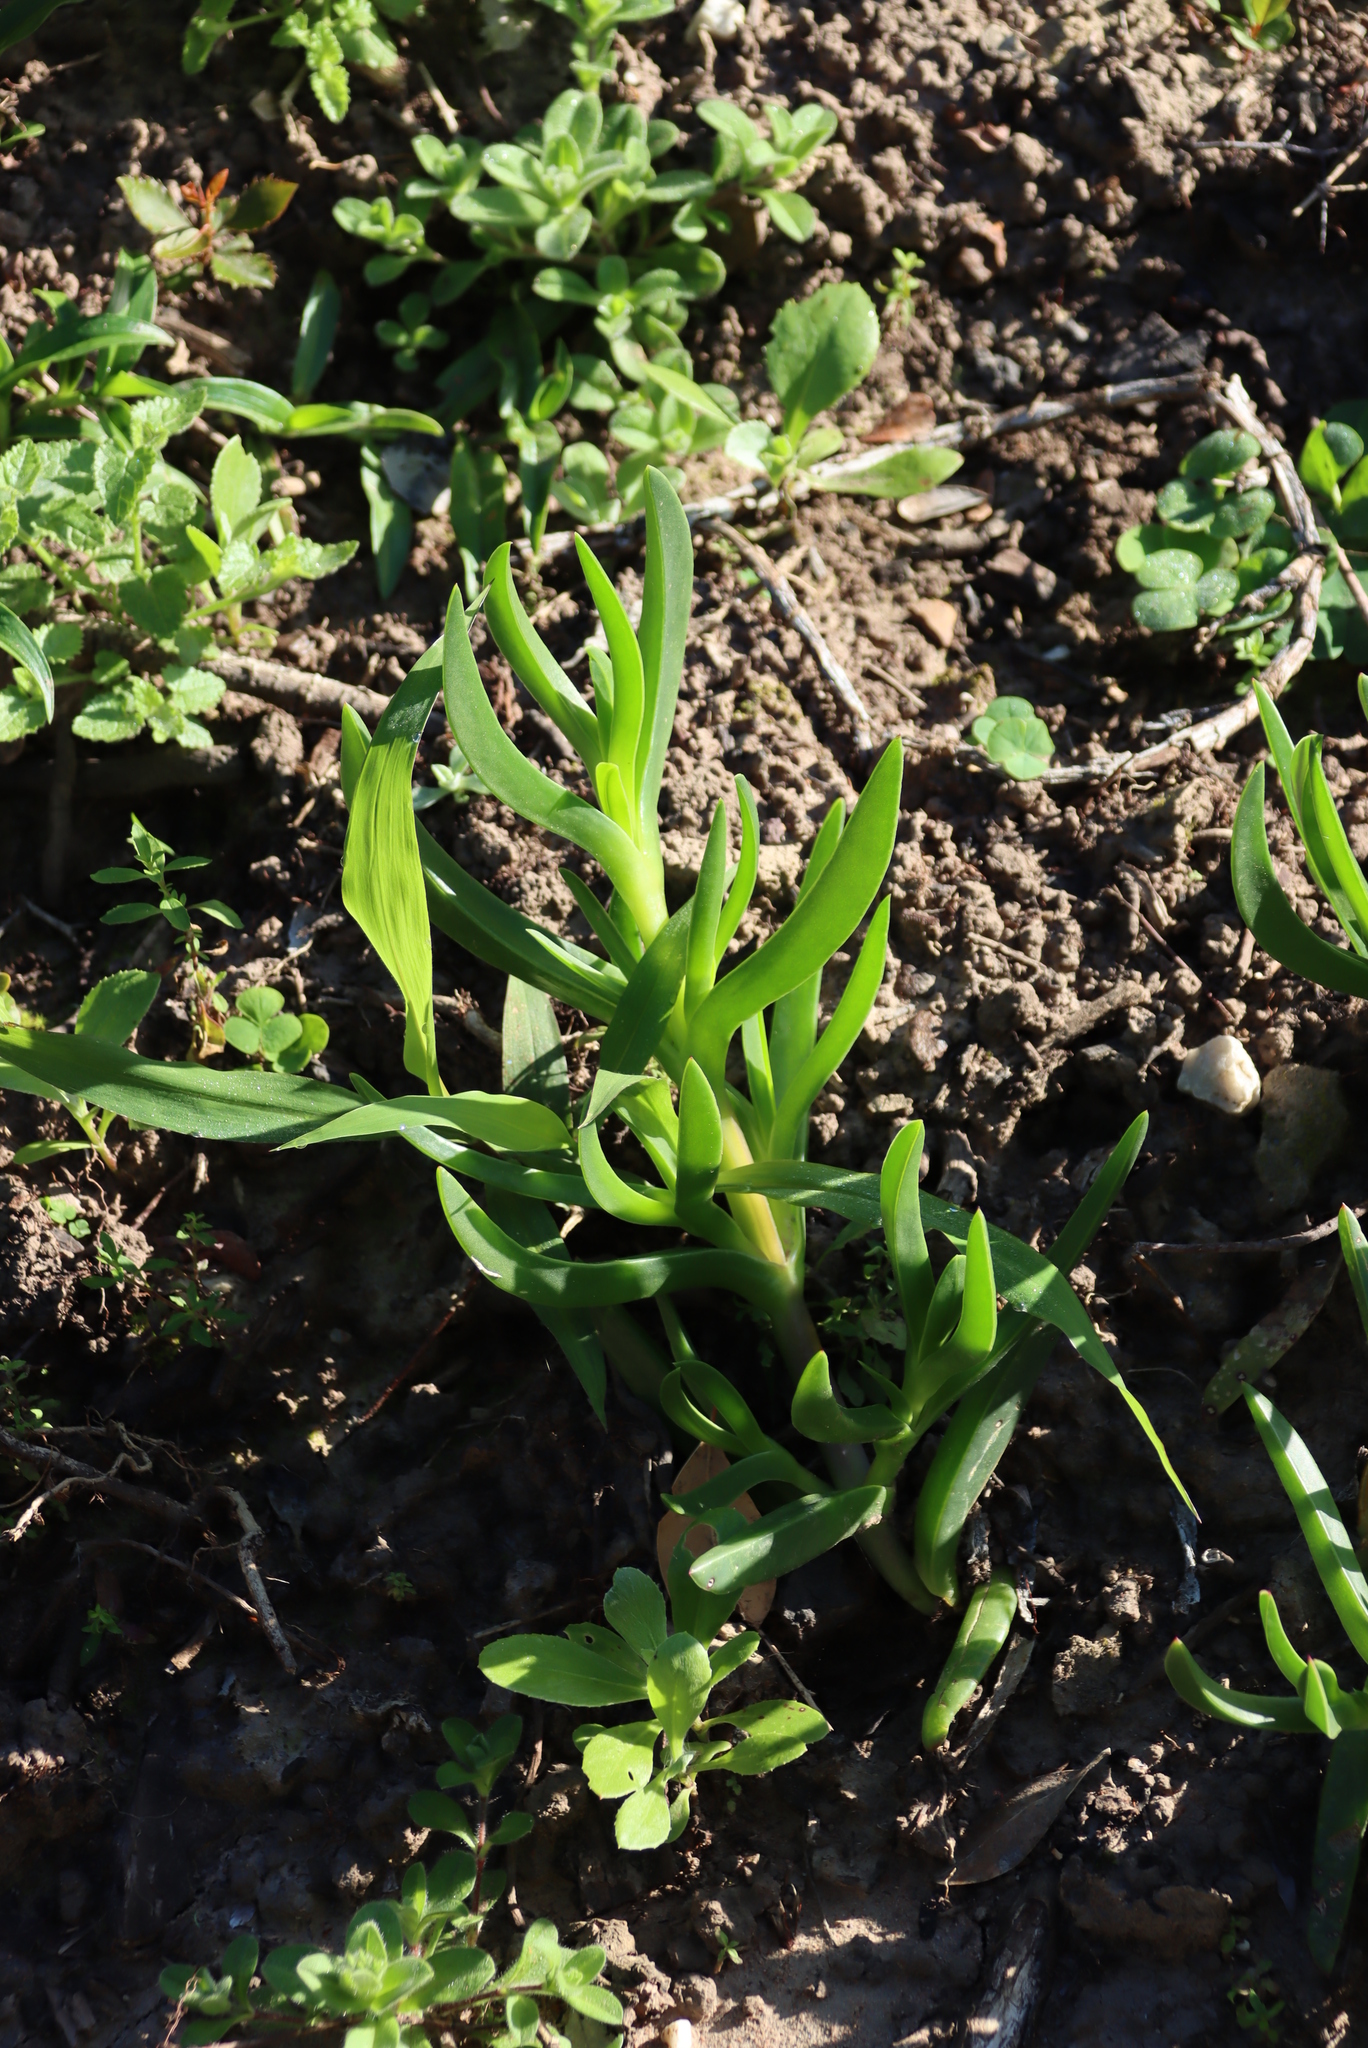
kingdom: Plantae
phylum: Tracheophyta
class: Magnoliopsida
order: Caryophyllales
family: Aizoaceae
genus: Carpobrotus
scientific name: Carpobrotus deliciosus
